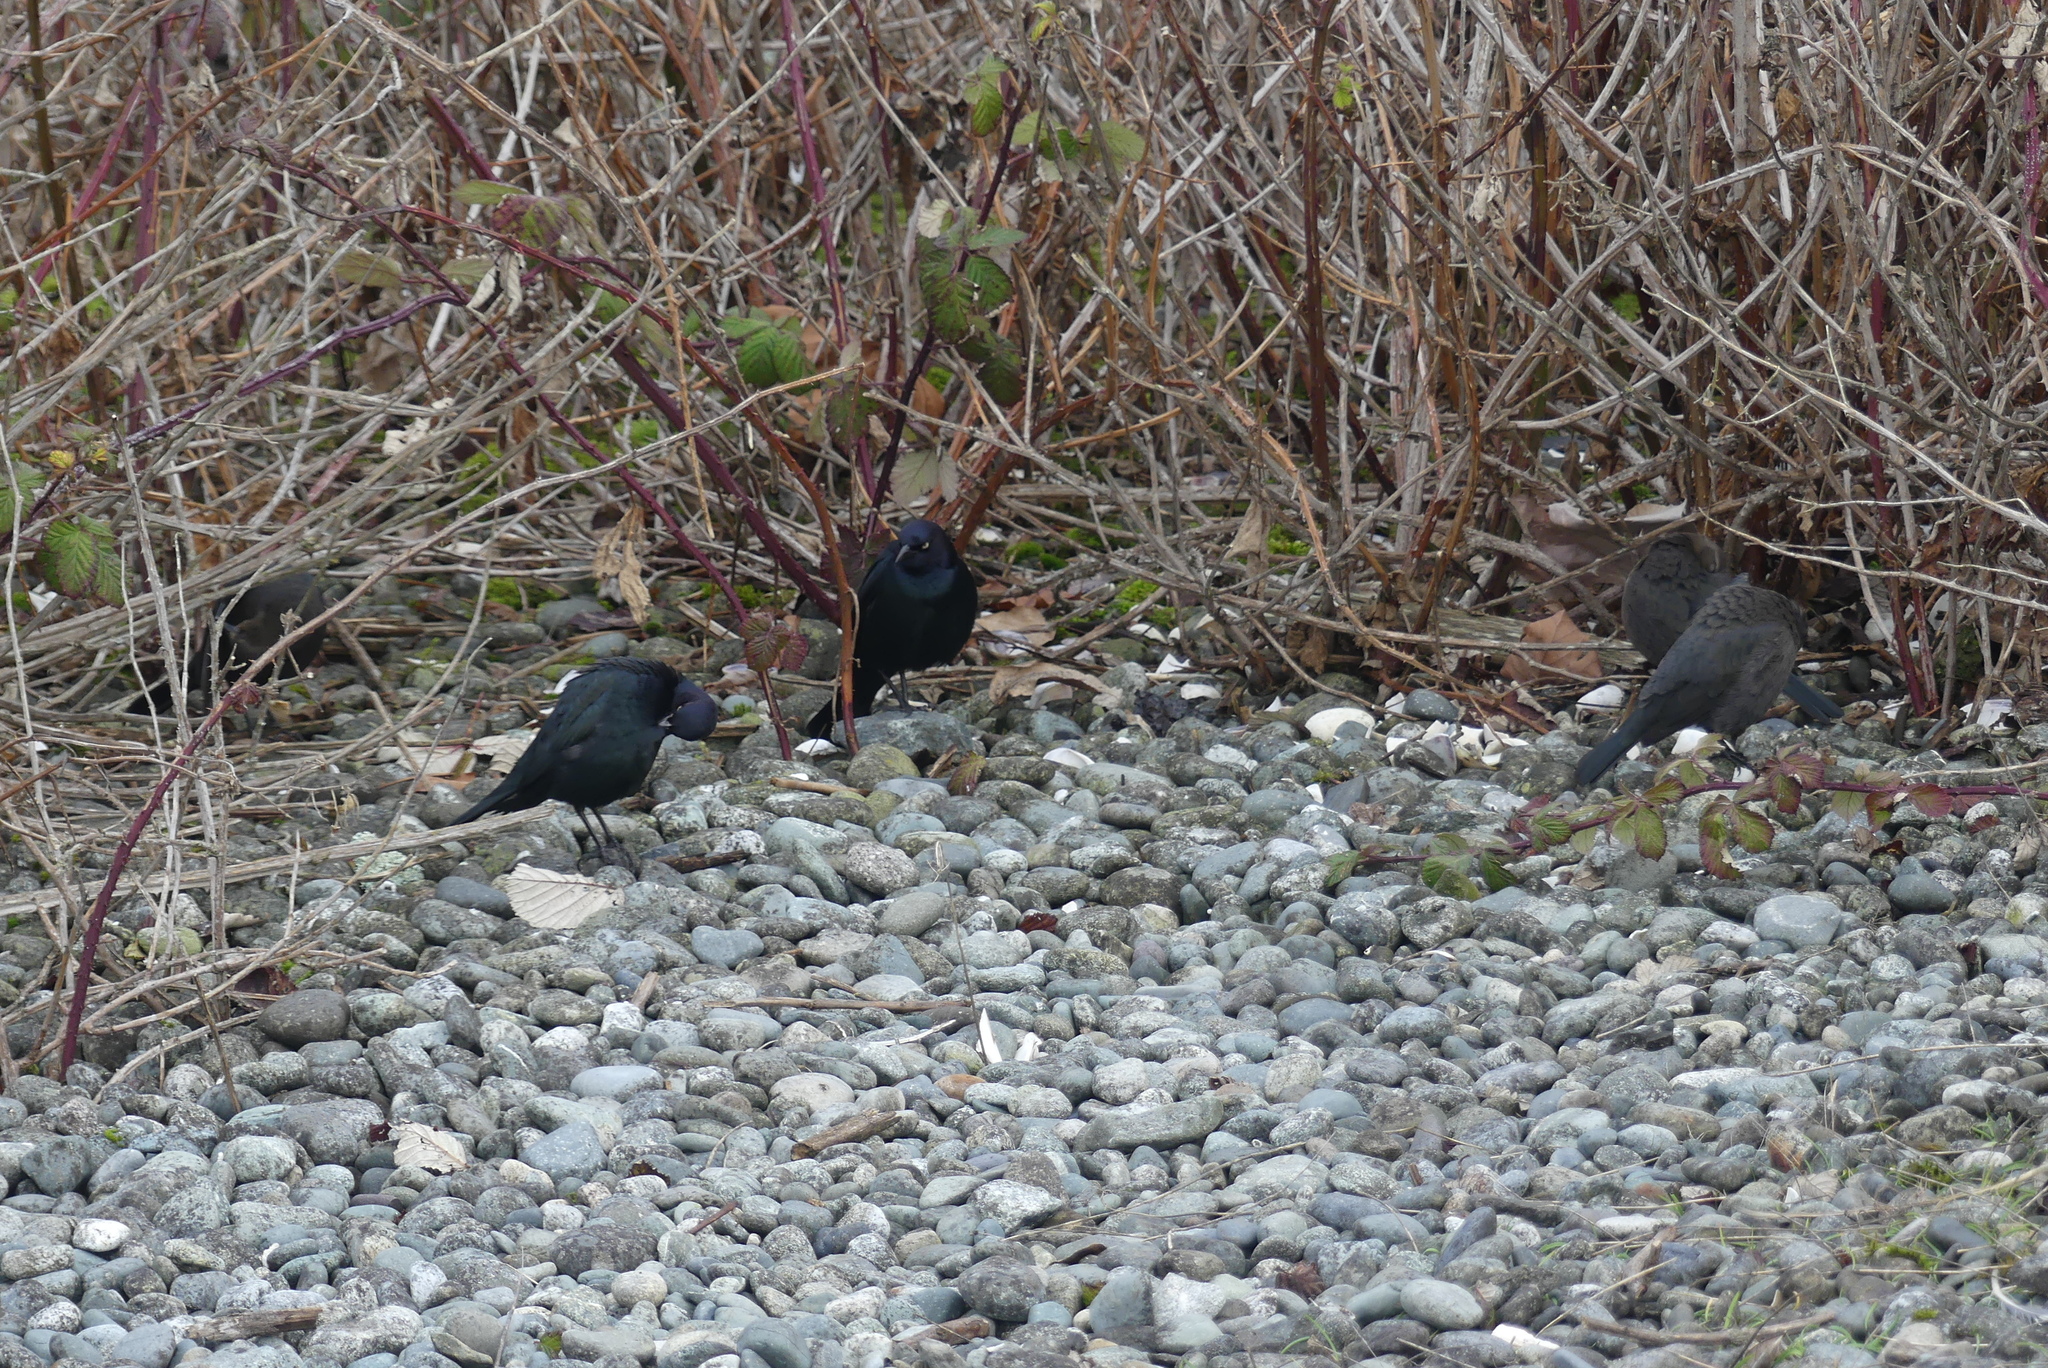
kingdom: Animalia
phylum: Chordata
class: Aves
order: Passeriformes
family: Icteridae
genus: Euphagus
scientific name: Euphagus cyanocephalus
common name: Brewer's blackbird
